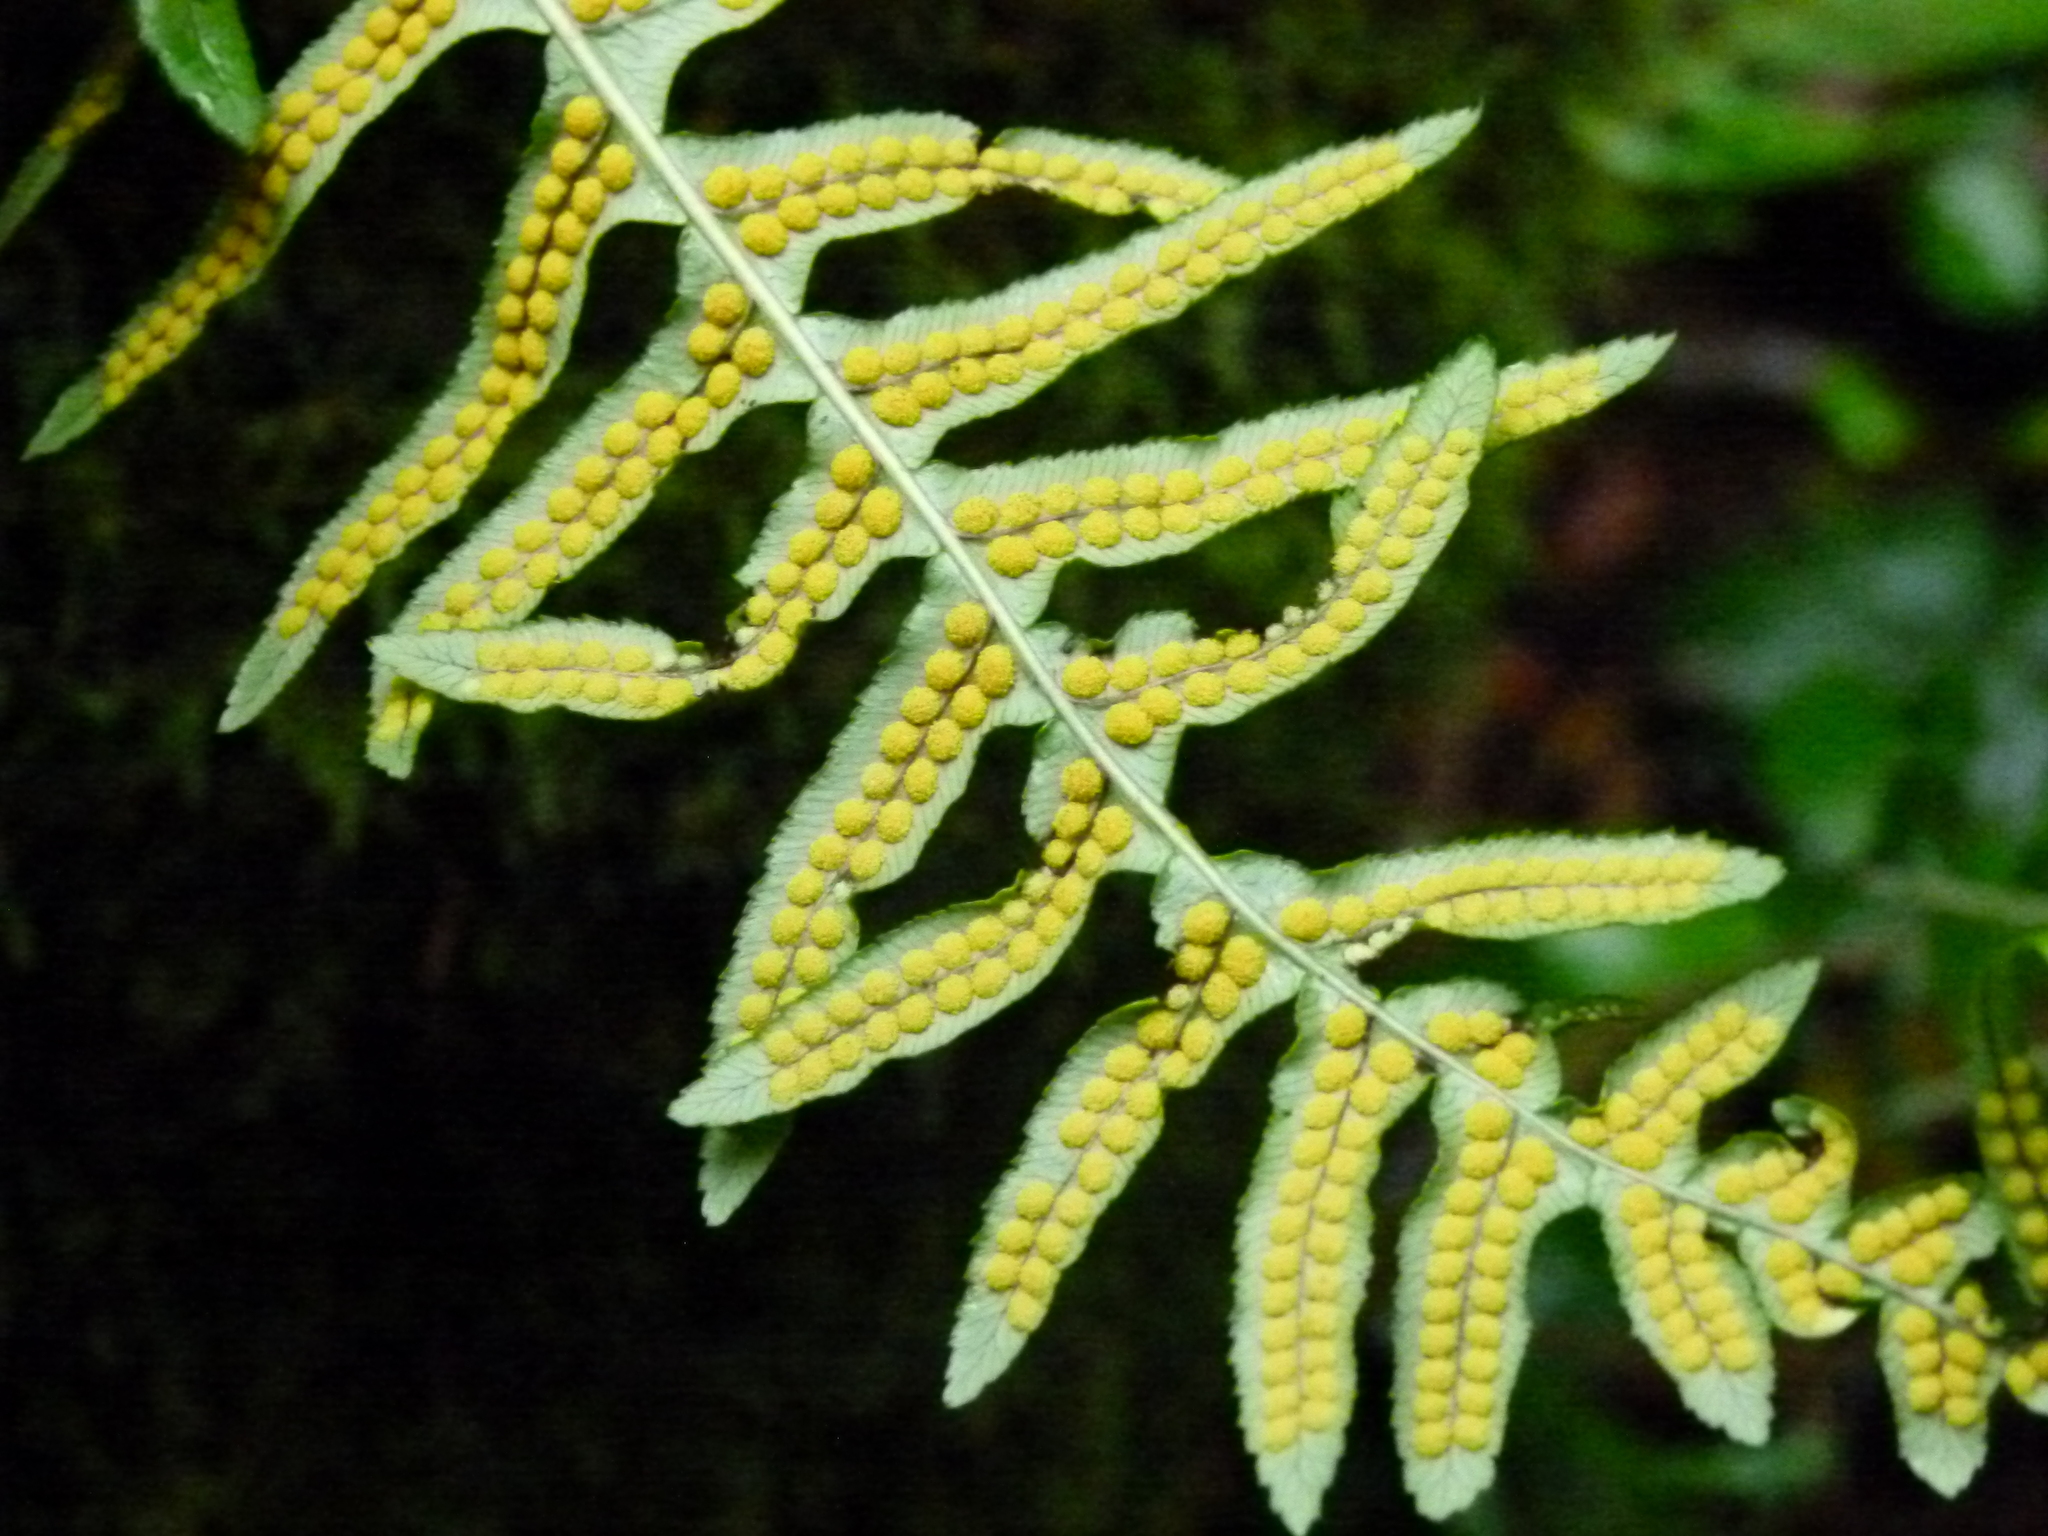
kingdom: Plantae
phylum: Tracheophyta
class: Polypodiopsida
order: Polypodiales
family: Polypodiaceae
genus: Polypodium
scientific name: Polypodium glycyrrhiza
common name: Licorice fern
